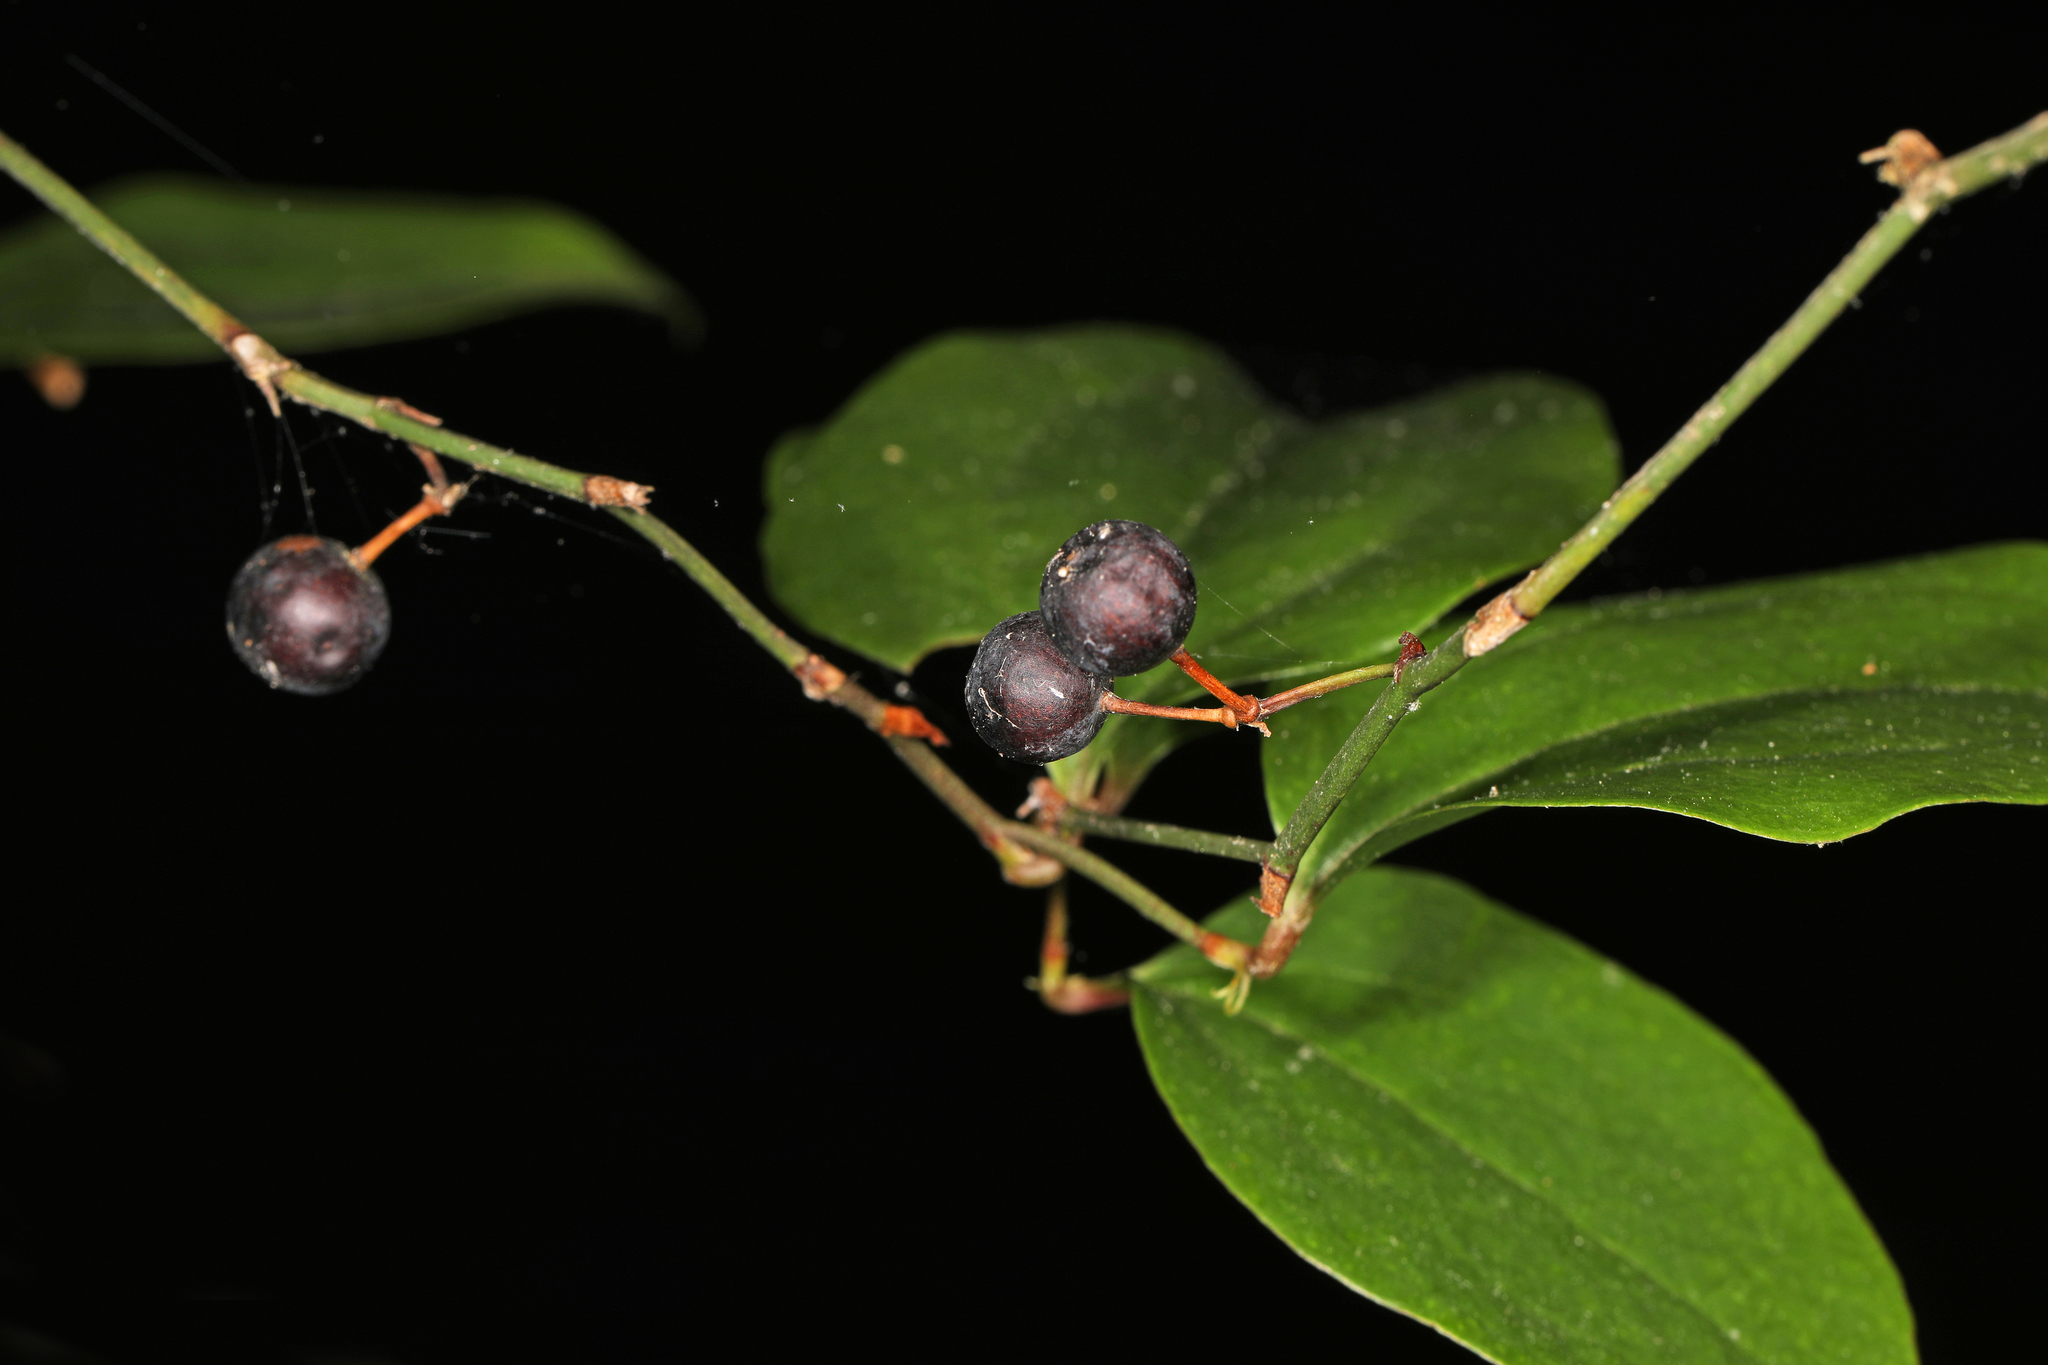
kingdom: Plantae
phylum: Tracheophyta
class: Liliopsida
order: Liliales
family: Smilacaceae
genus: Smilax
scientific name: Smilax rotundifolia
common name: Bullbriar
